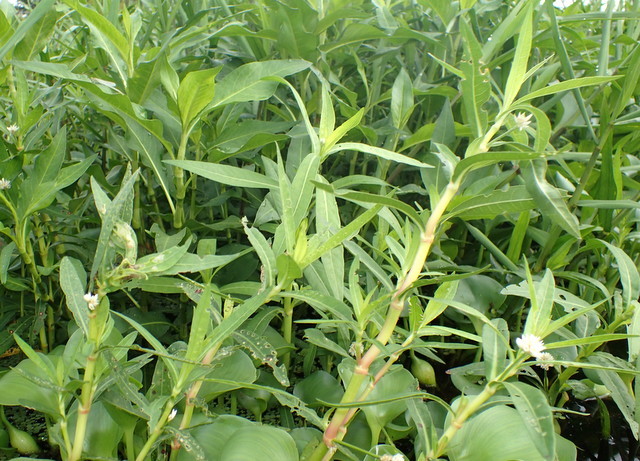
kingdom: Plantae
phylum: Tracheophyta
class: Magnoliopsida
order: Caryophyllales
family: Amaranthaceae
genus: Alternanthera
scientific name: Alternanthera philoxeroides
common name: Alligatorweed
